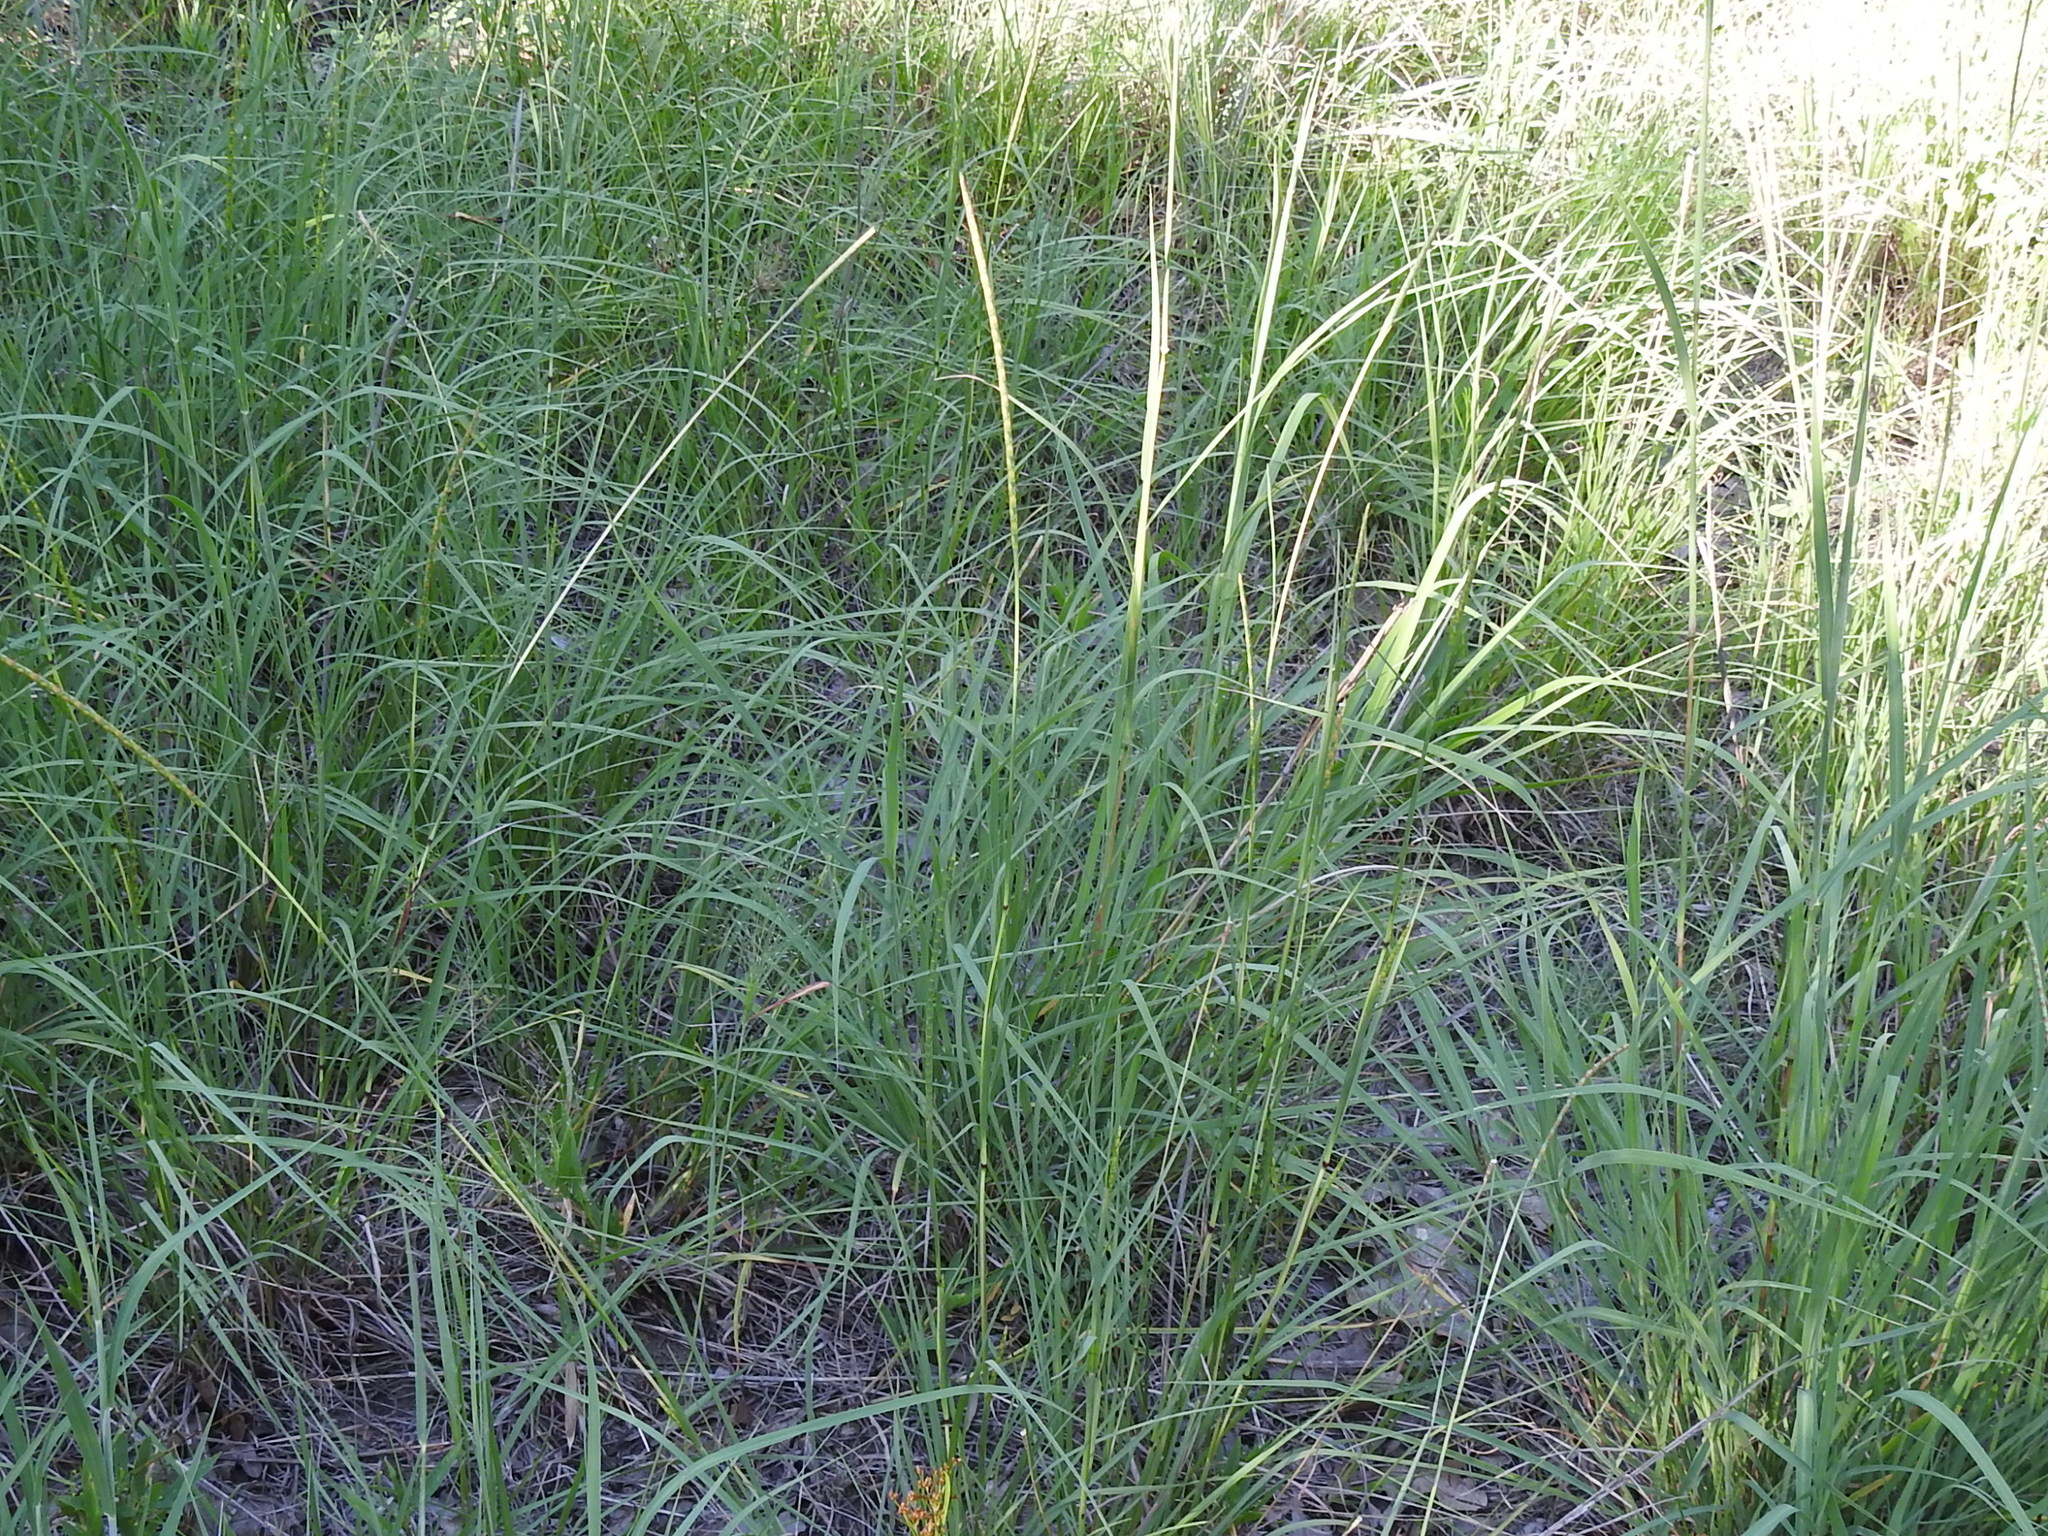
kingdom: Plantae
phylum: Tracheophyta
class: Liliopsida
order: Poales
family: Poaceae
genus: Rottboellia
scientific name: Rottboellia campestris
